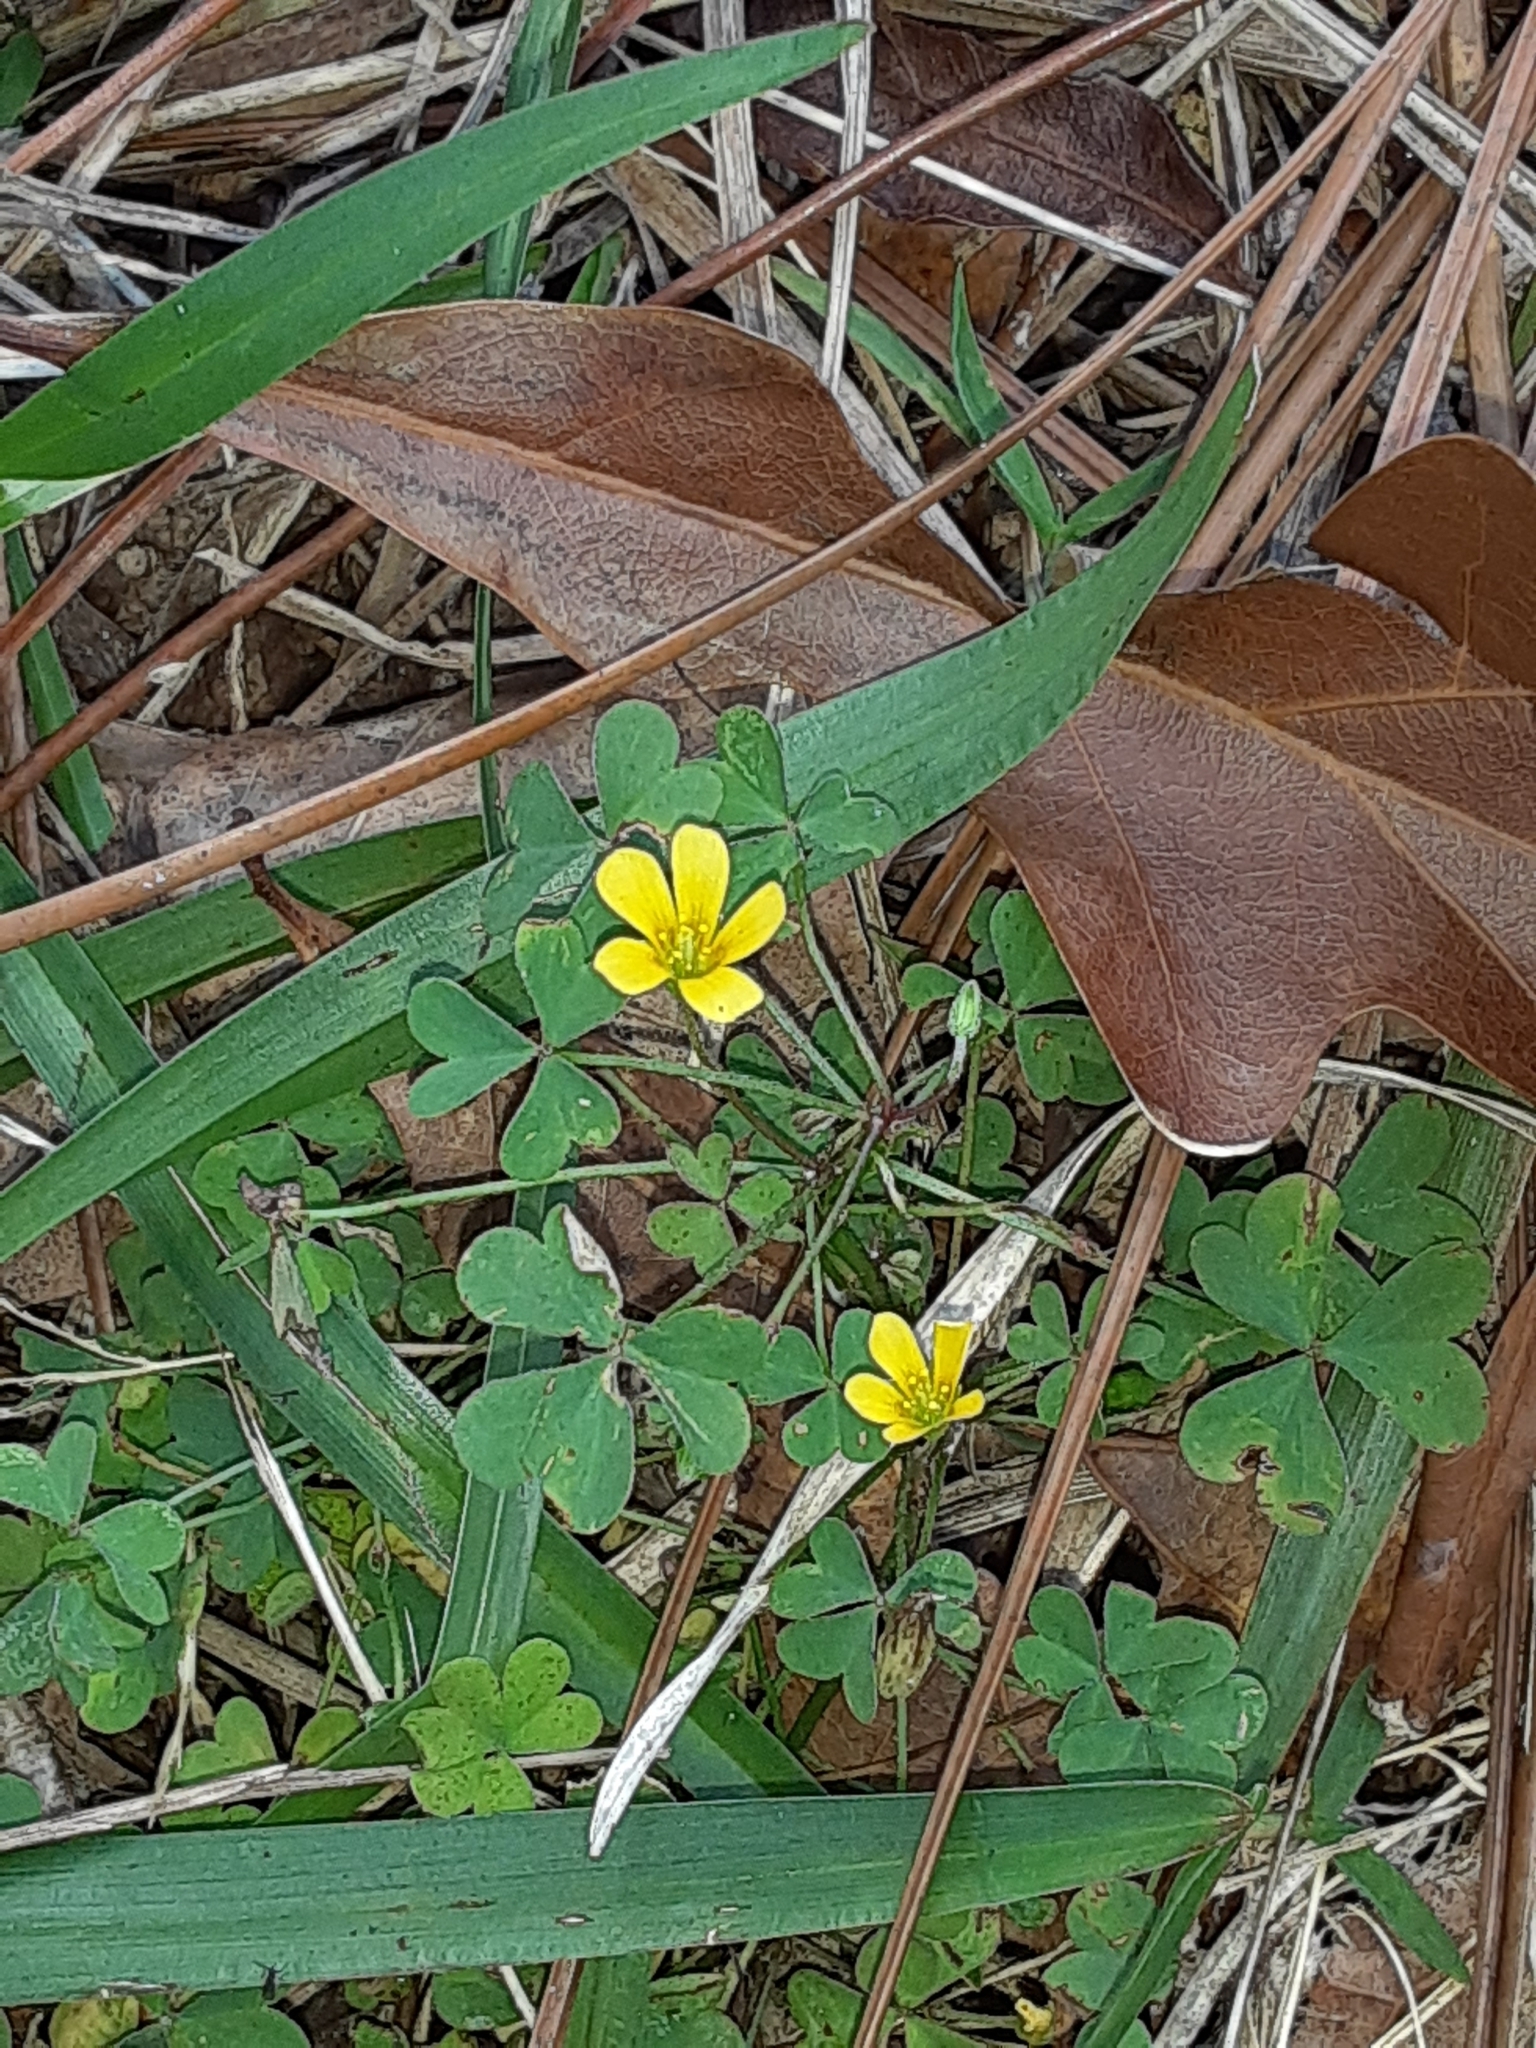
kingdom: Plantae
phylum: Tracheophyta
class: Magnoliopsida
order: Oxalidales
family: Oxalidaceae
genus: Oxalis
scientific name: Oxalis corniculata
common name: Procumbent yellow-sorrel
